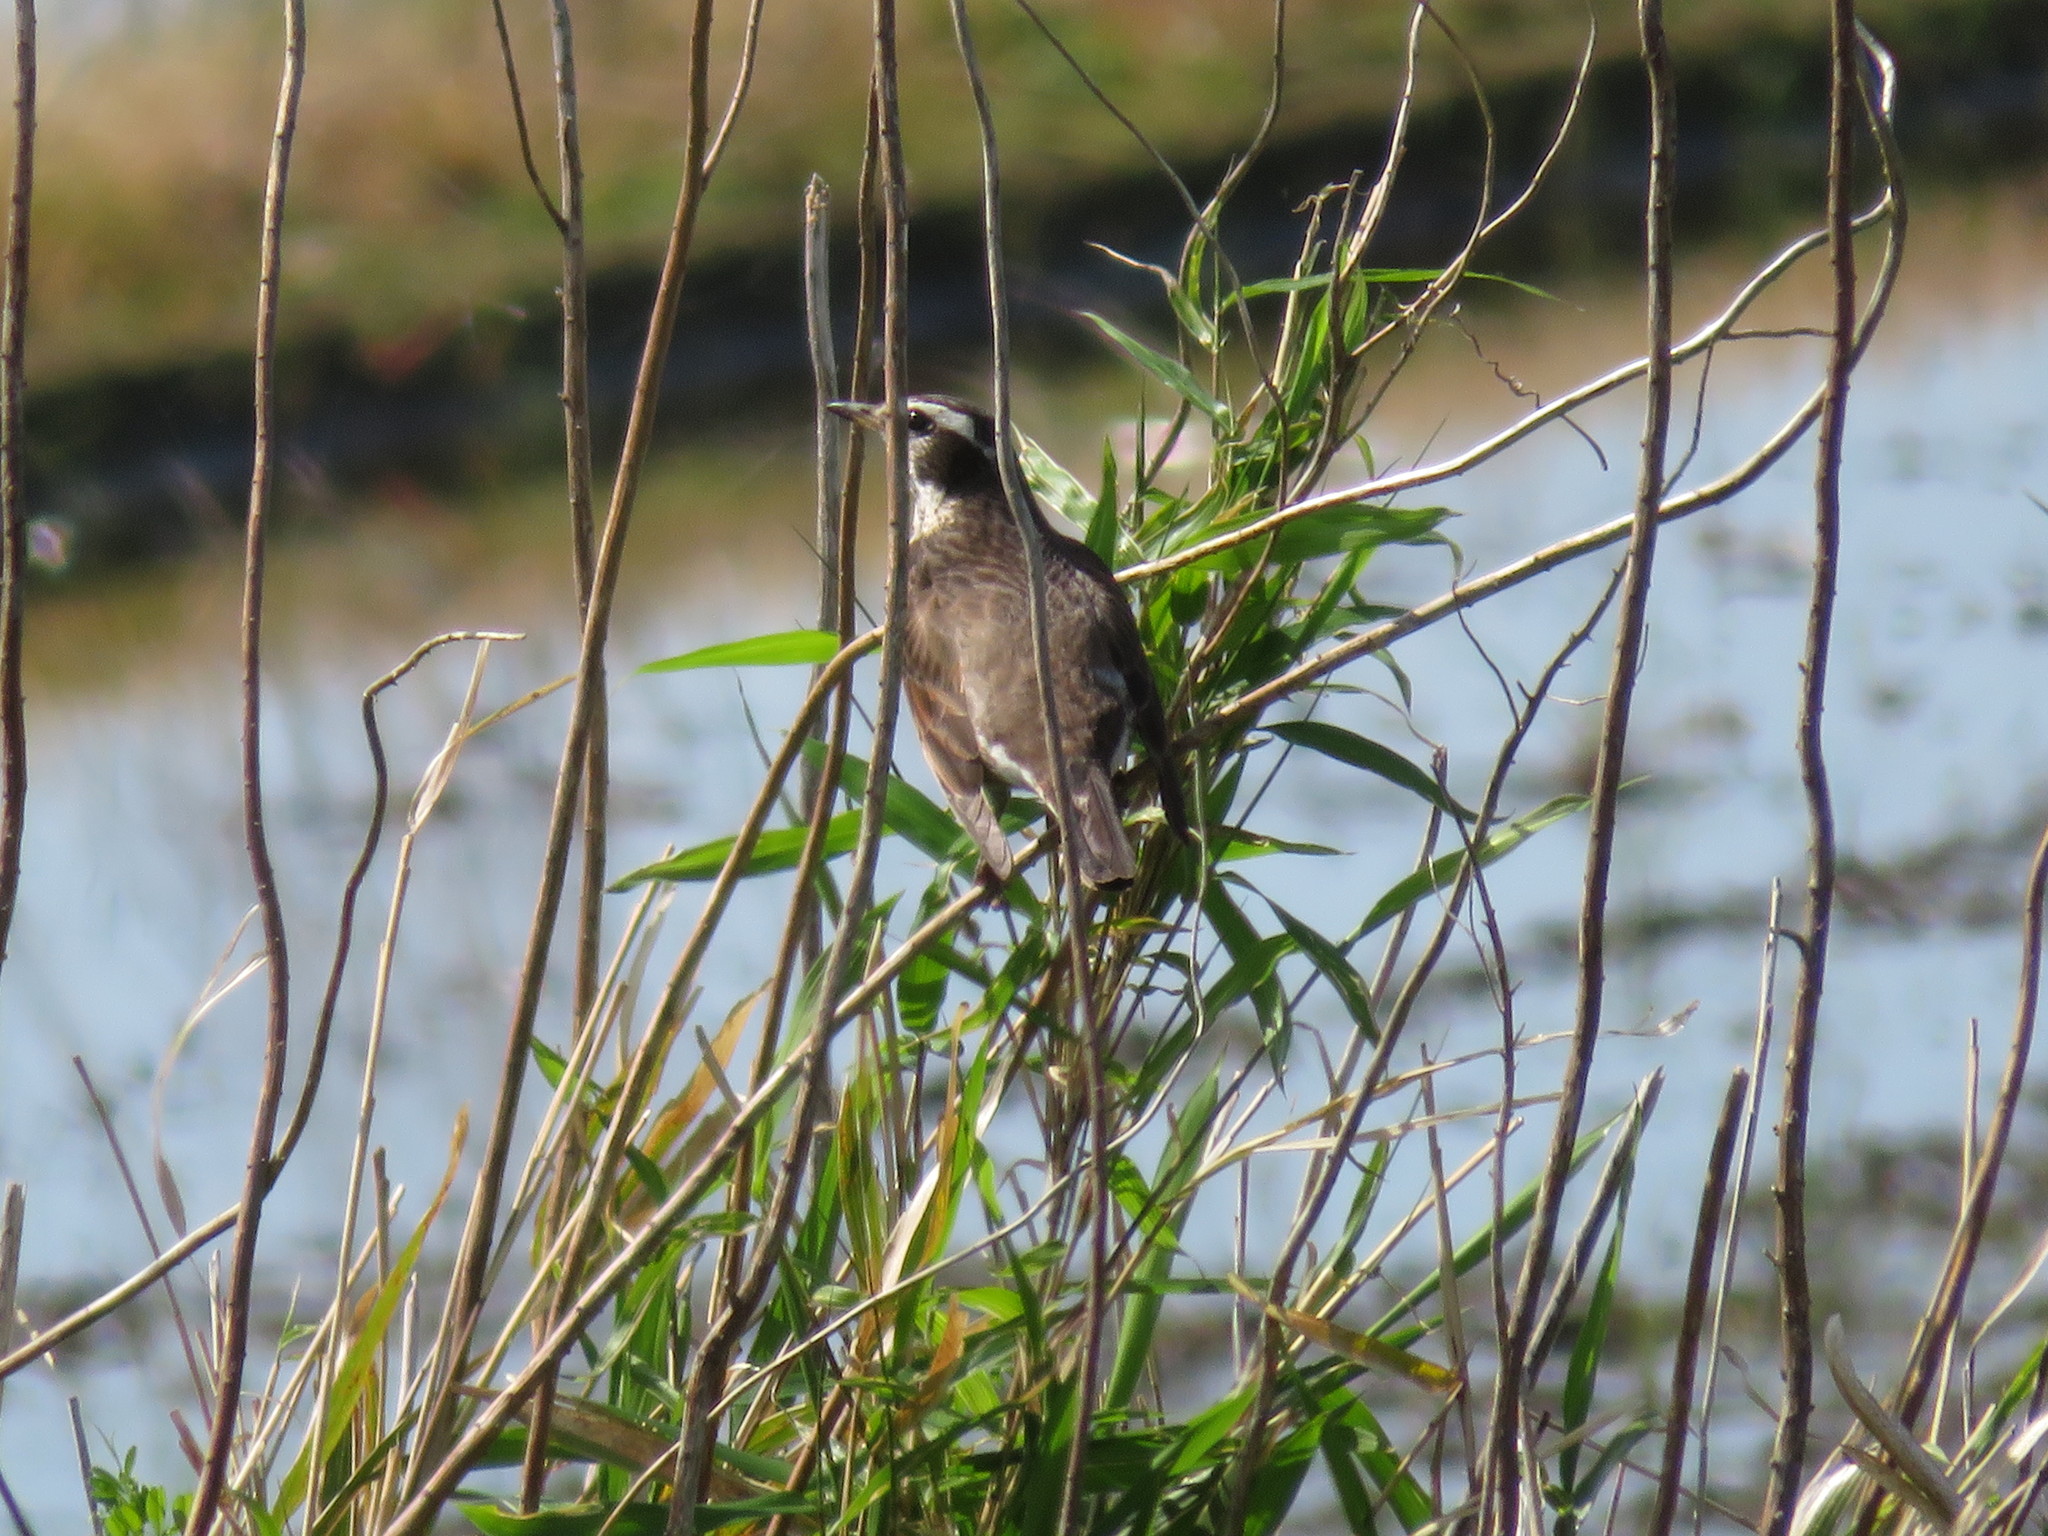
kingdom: Animalia
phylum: Chordata
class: Aves
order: Passeriformes
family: Turdidae
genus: Turdus
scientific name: Turdus eunomus
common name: Dusky thrush
